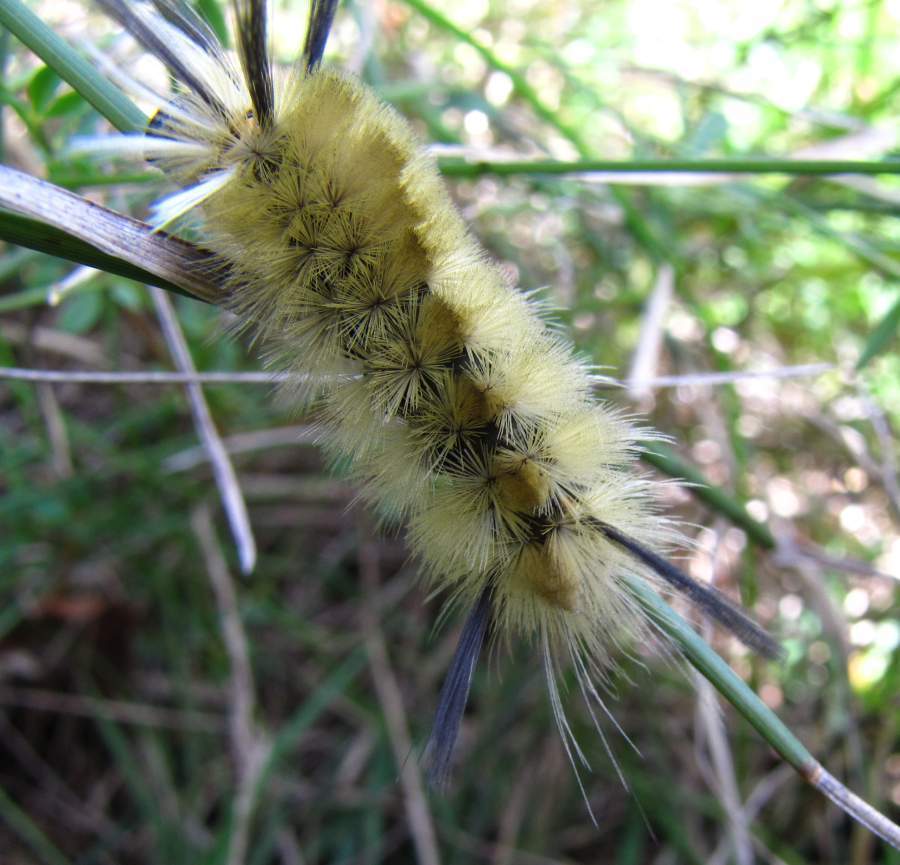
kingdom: Animalia
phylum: Arthropoda
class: Insecta
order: Lepidoptera
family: Erebidae
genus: Halysidota
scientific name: Halysidota tessellaris
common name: Banded tussock moth
